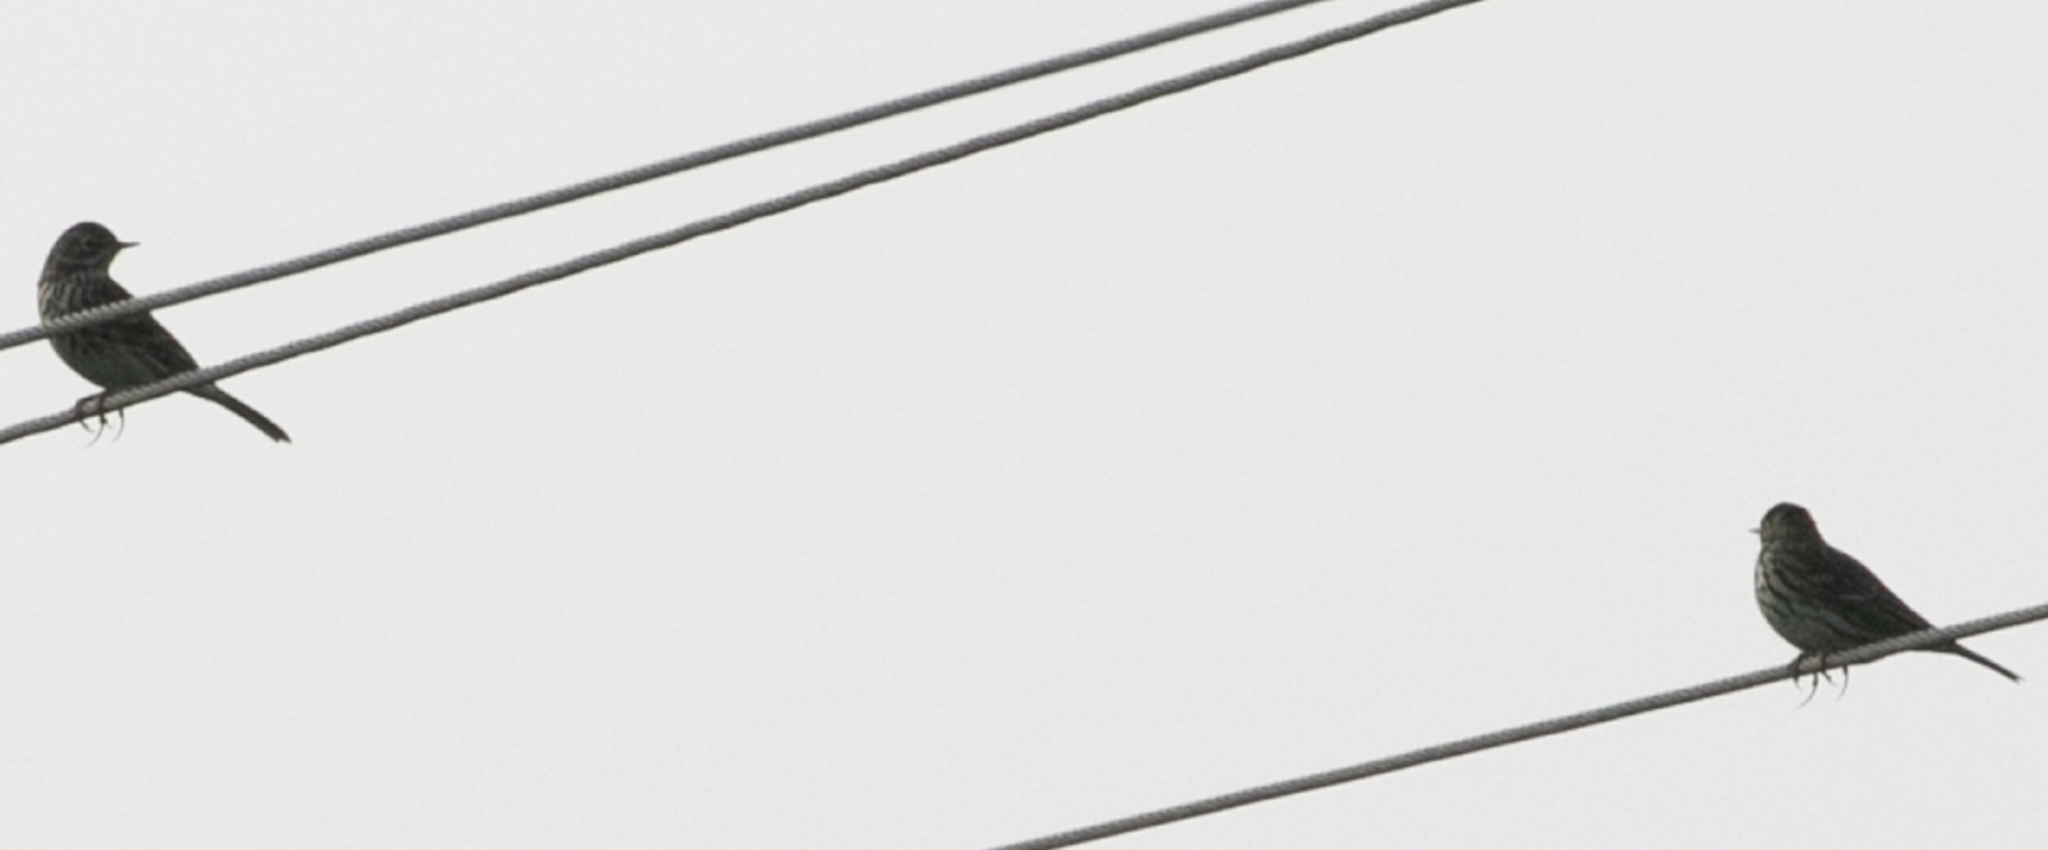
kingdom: Animalia
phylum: Chordata
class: Aves
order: Passeriformes
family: Motacillidae
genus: Anthus
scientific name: Anthus pratensis
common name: Meadow pipit
